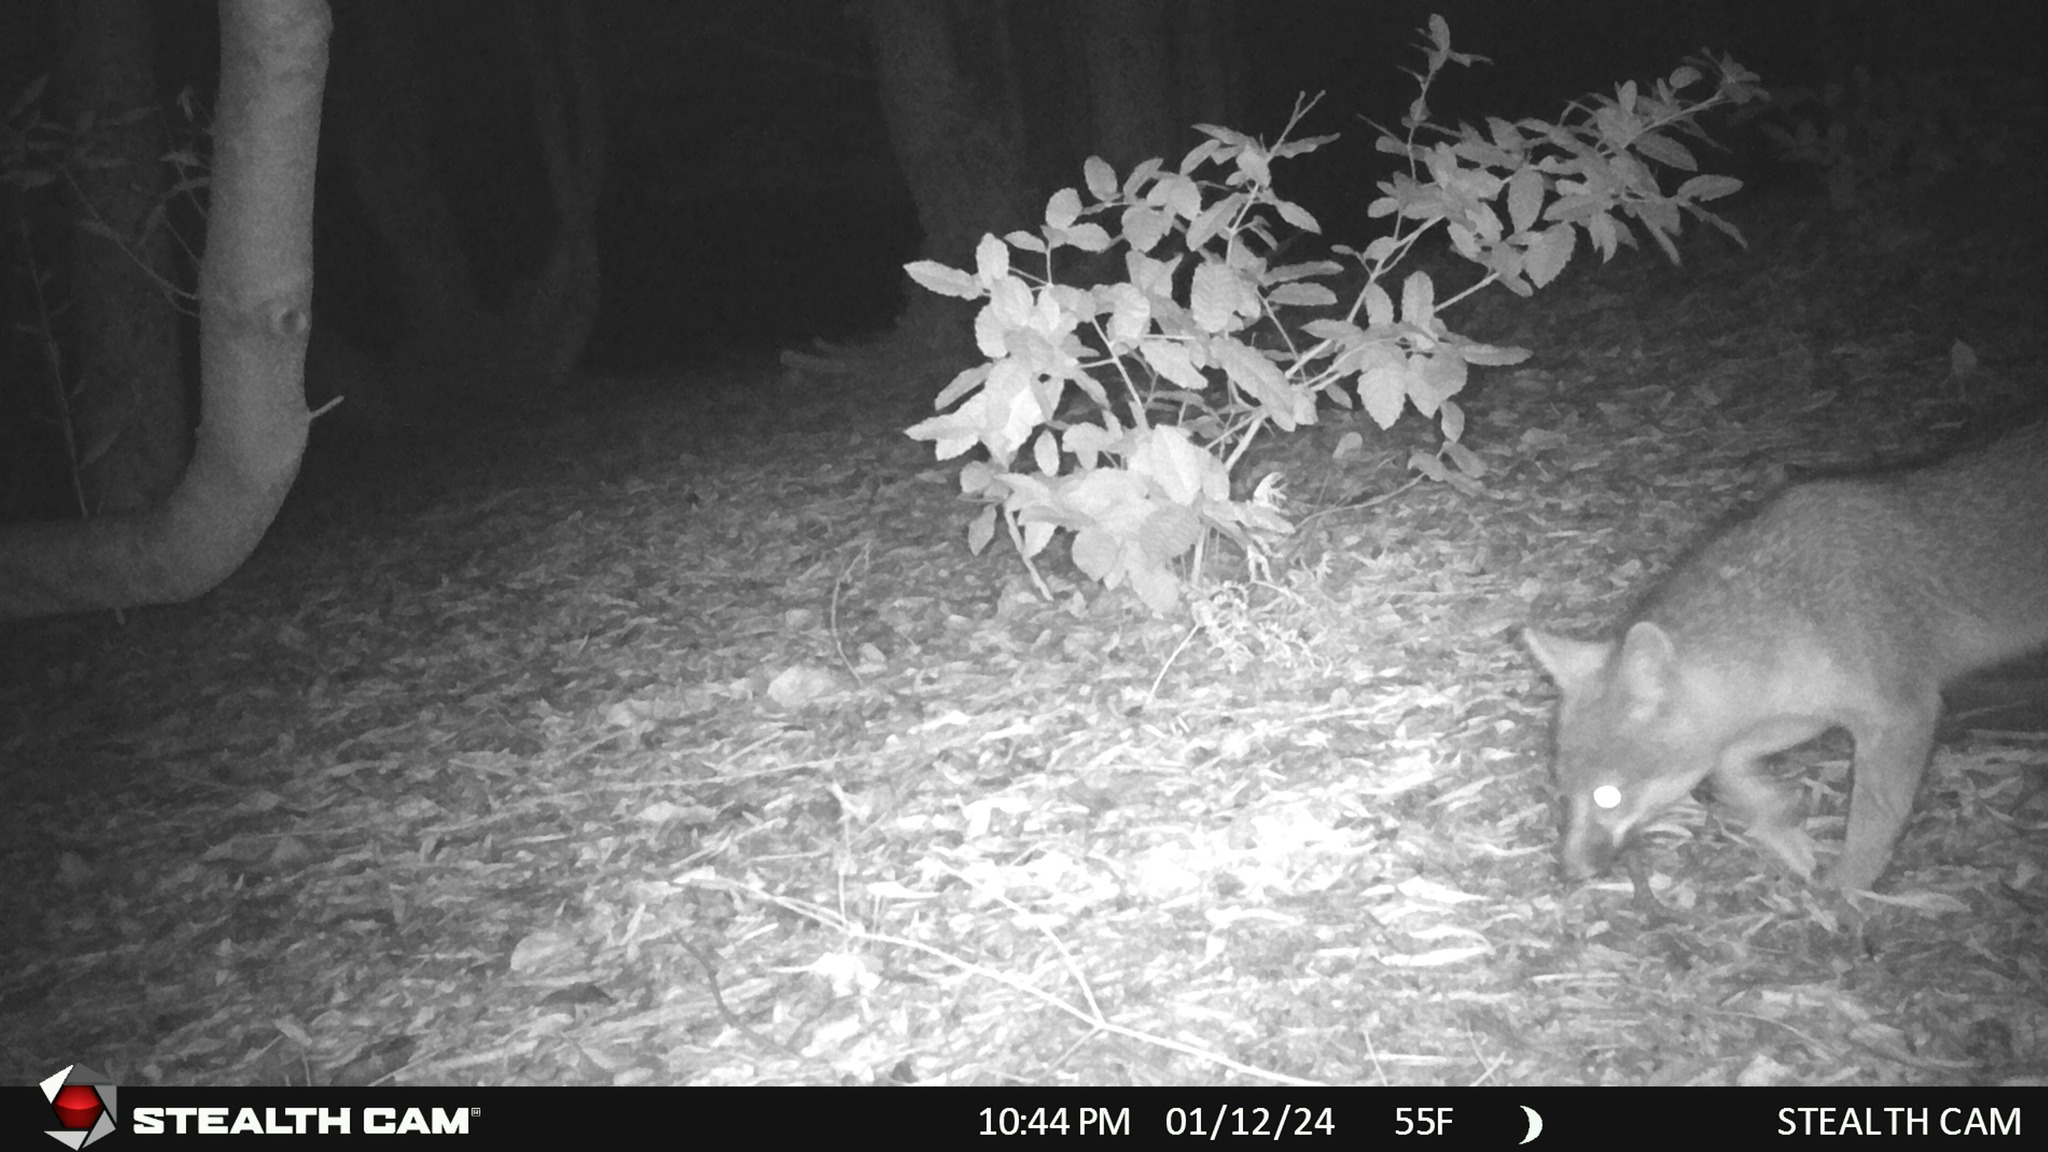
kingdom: Animalia
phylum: Chordata
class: Mammalia
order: Carnivora
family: Canidae
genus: Urocyon
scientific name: Urocyon cinereoargenteus
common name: Gray fox
